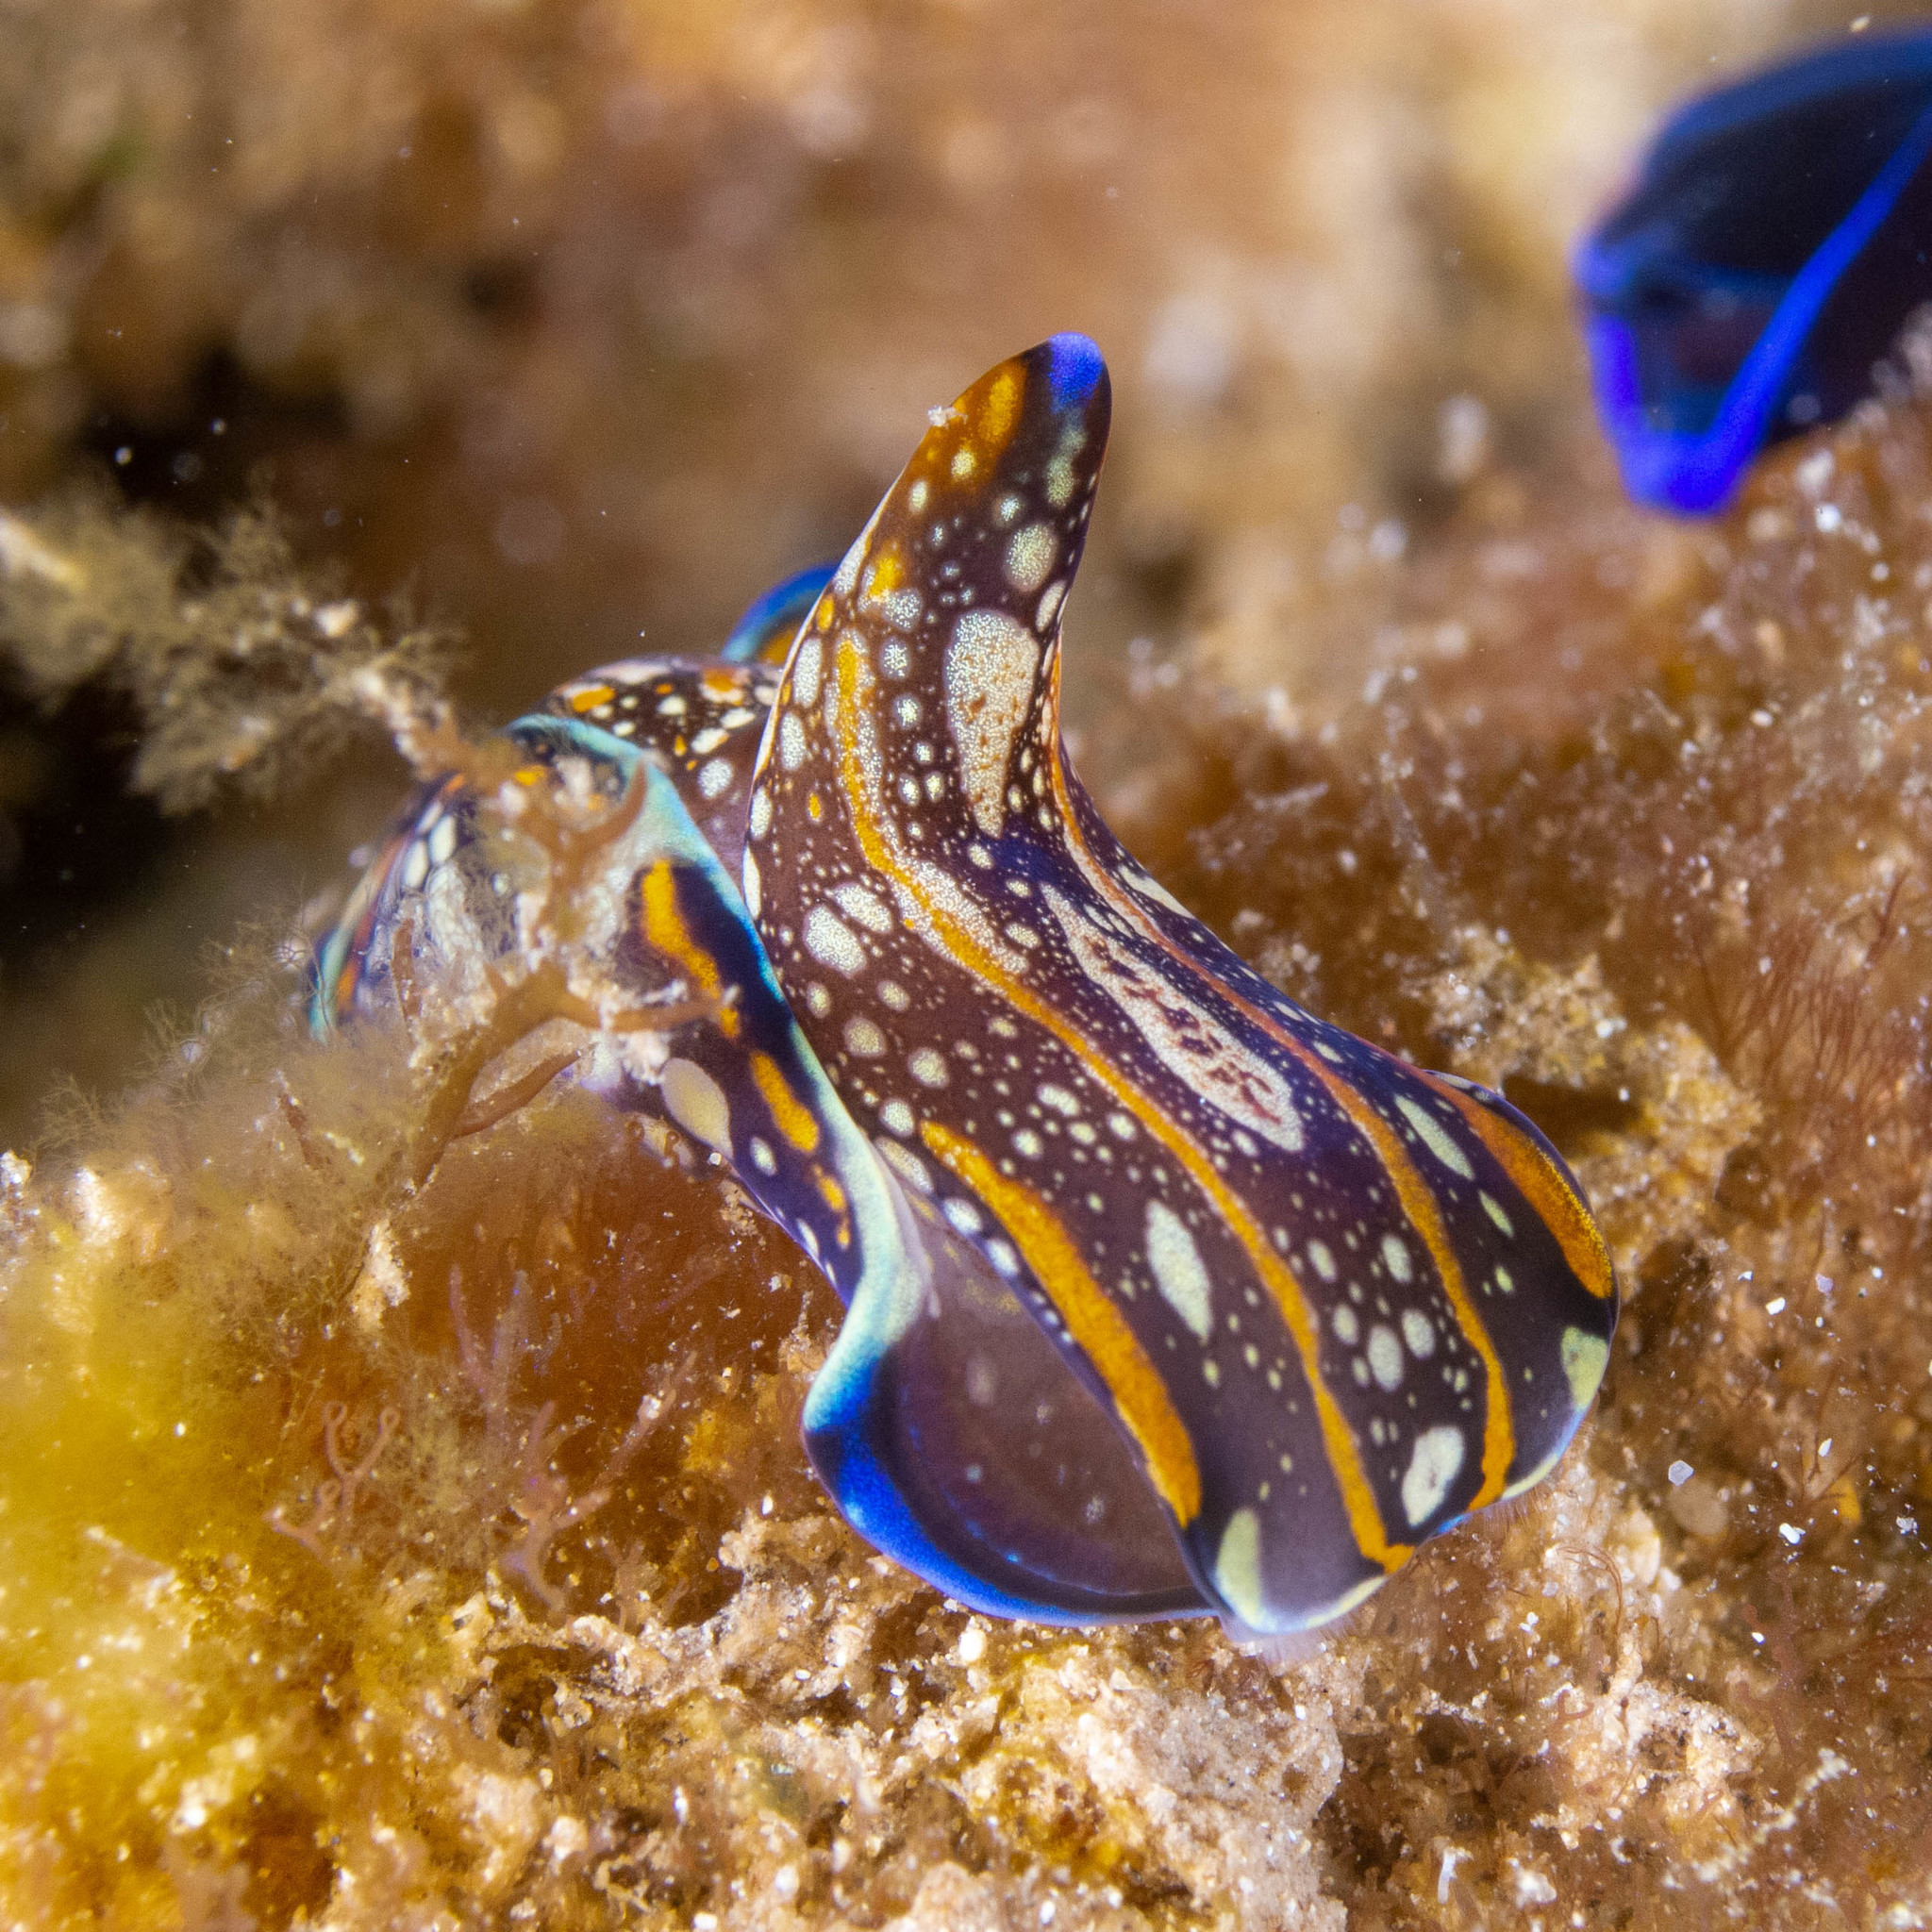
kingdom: Animalia
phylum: Mollusca
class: Gastropoda
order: Cephalaspidea
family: Aglajidae
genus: Philinopsis
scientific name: Philinopsis speciosa
